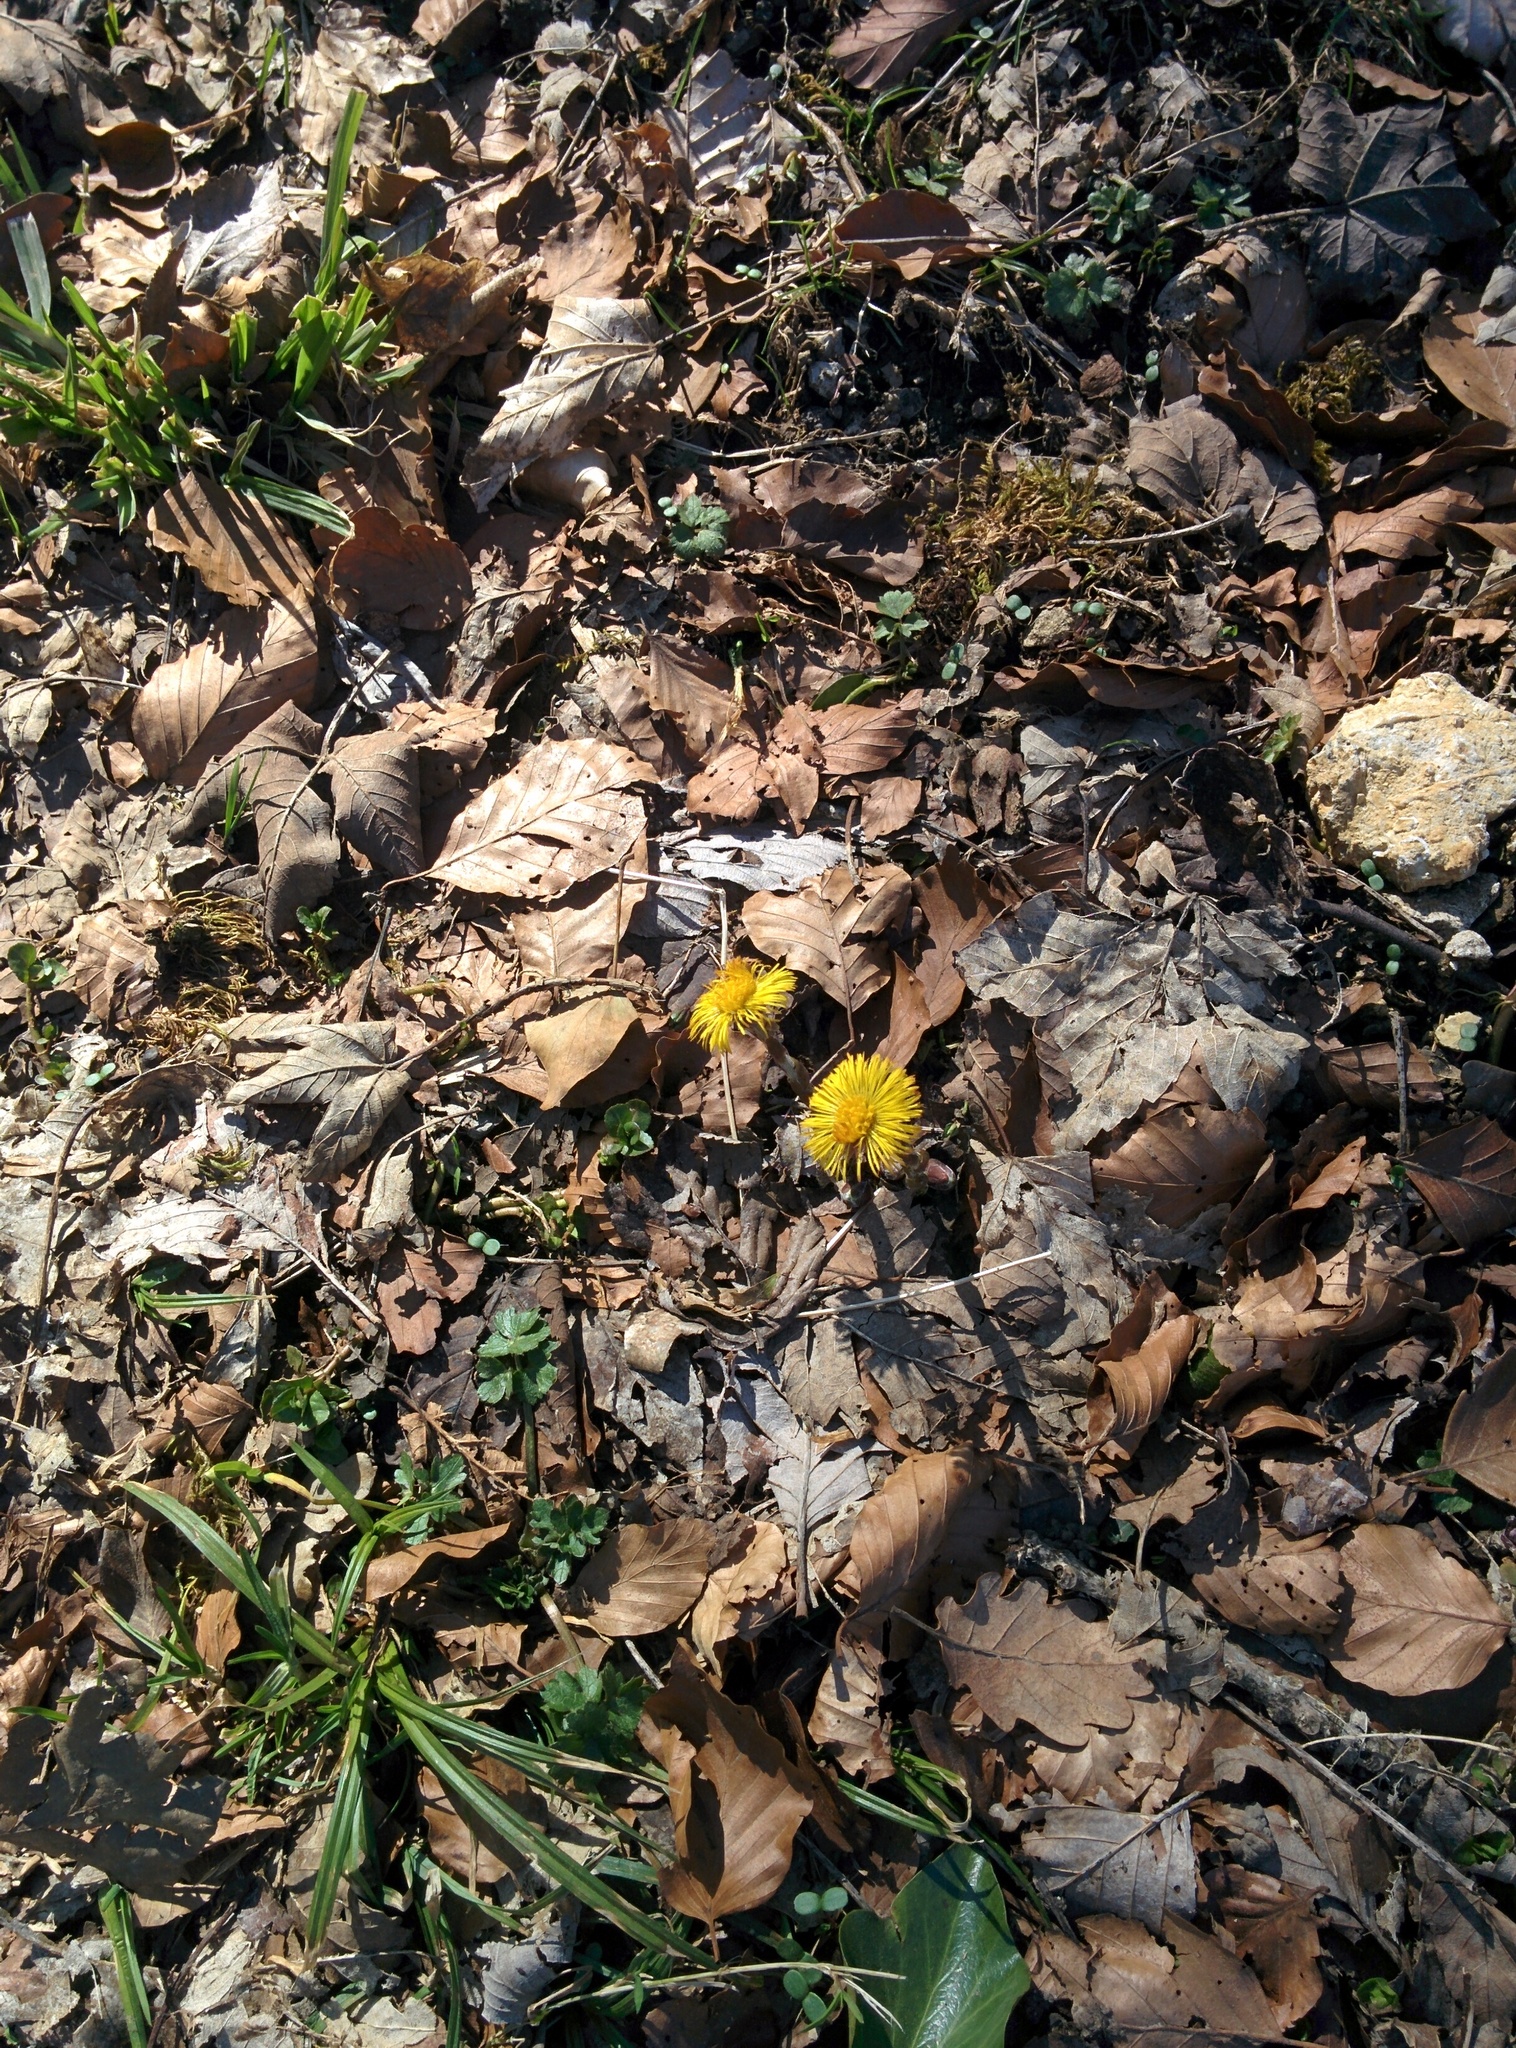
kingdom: Plantae
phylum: Tracheophyta
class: Magnoliopsida
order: Asterales
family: Asteraceae
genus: Tussilago
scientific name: Tussilago farfara
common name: Coltsfoot
